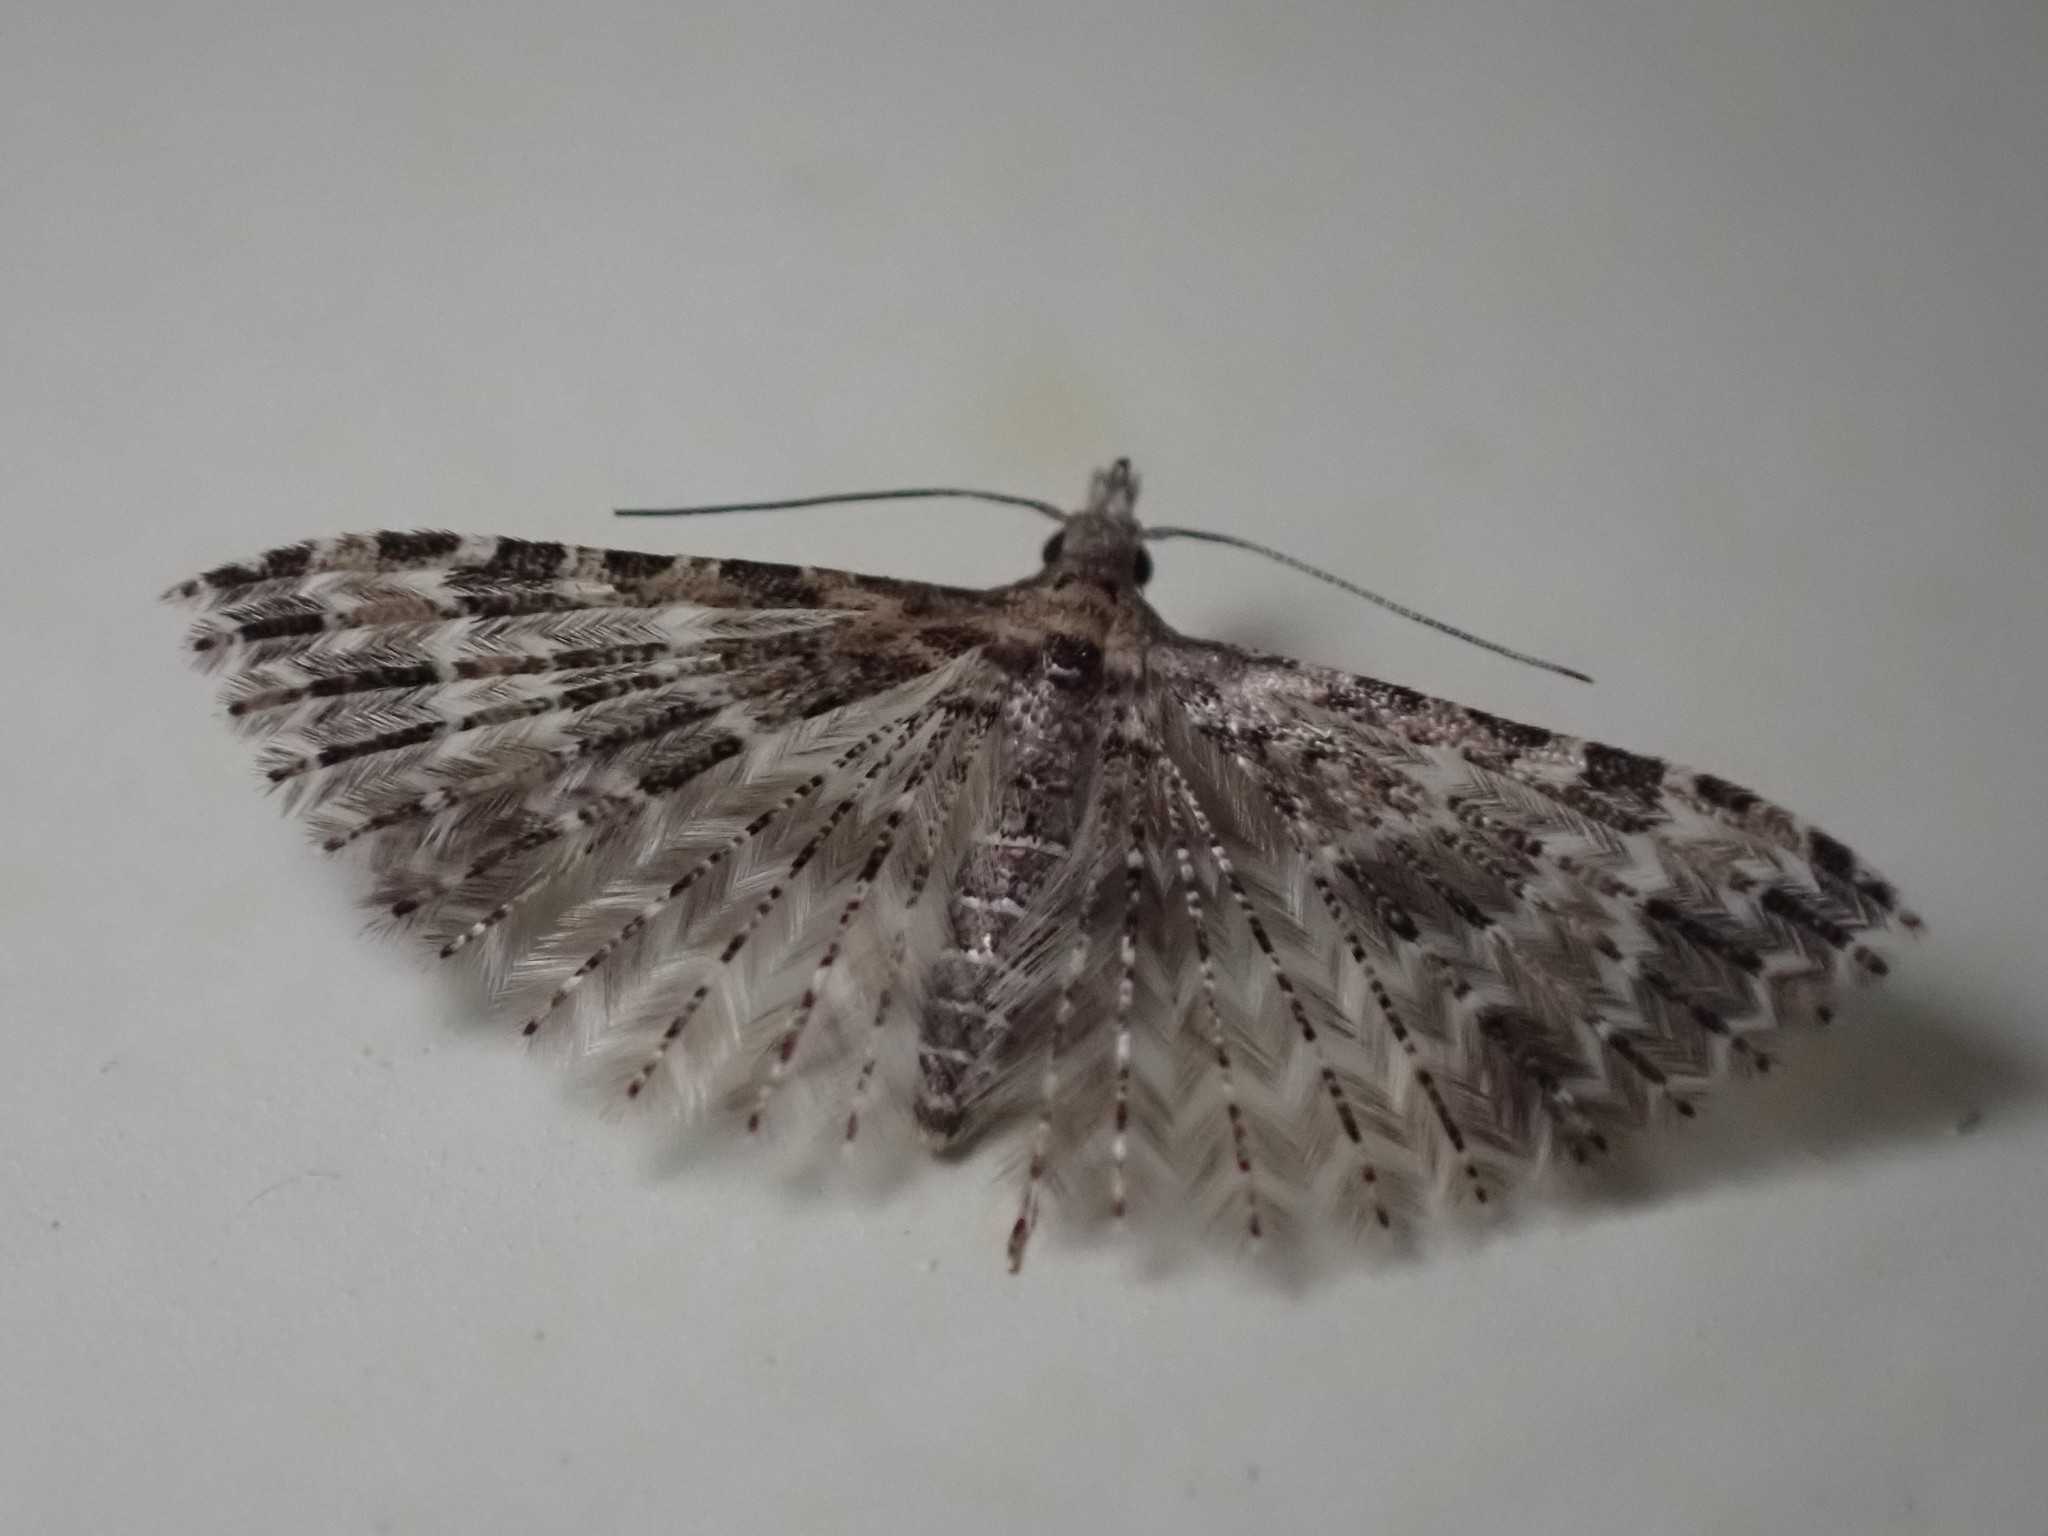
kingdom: Animalia
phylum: Arthropoda
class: Insecta
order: Lepidoptera
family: Alucitidae
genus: Alucita
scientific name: Alucita montana
